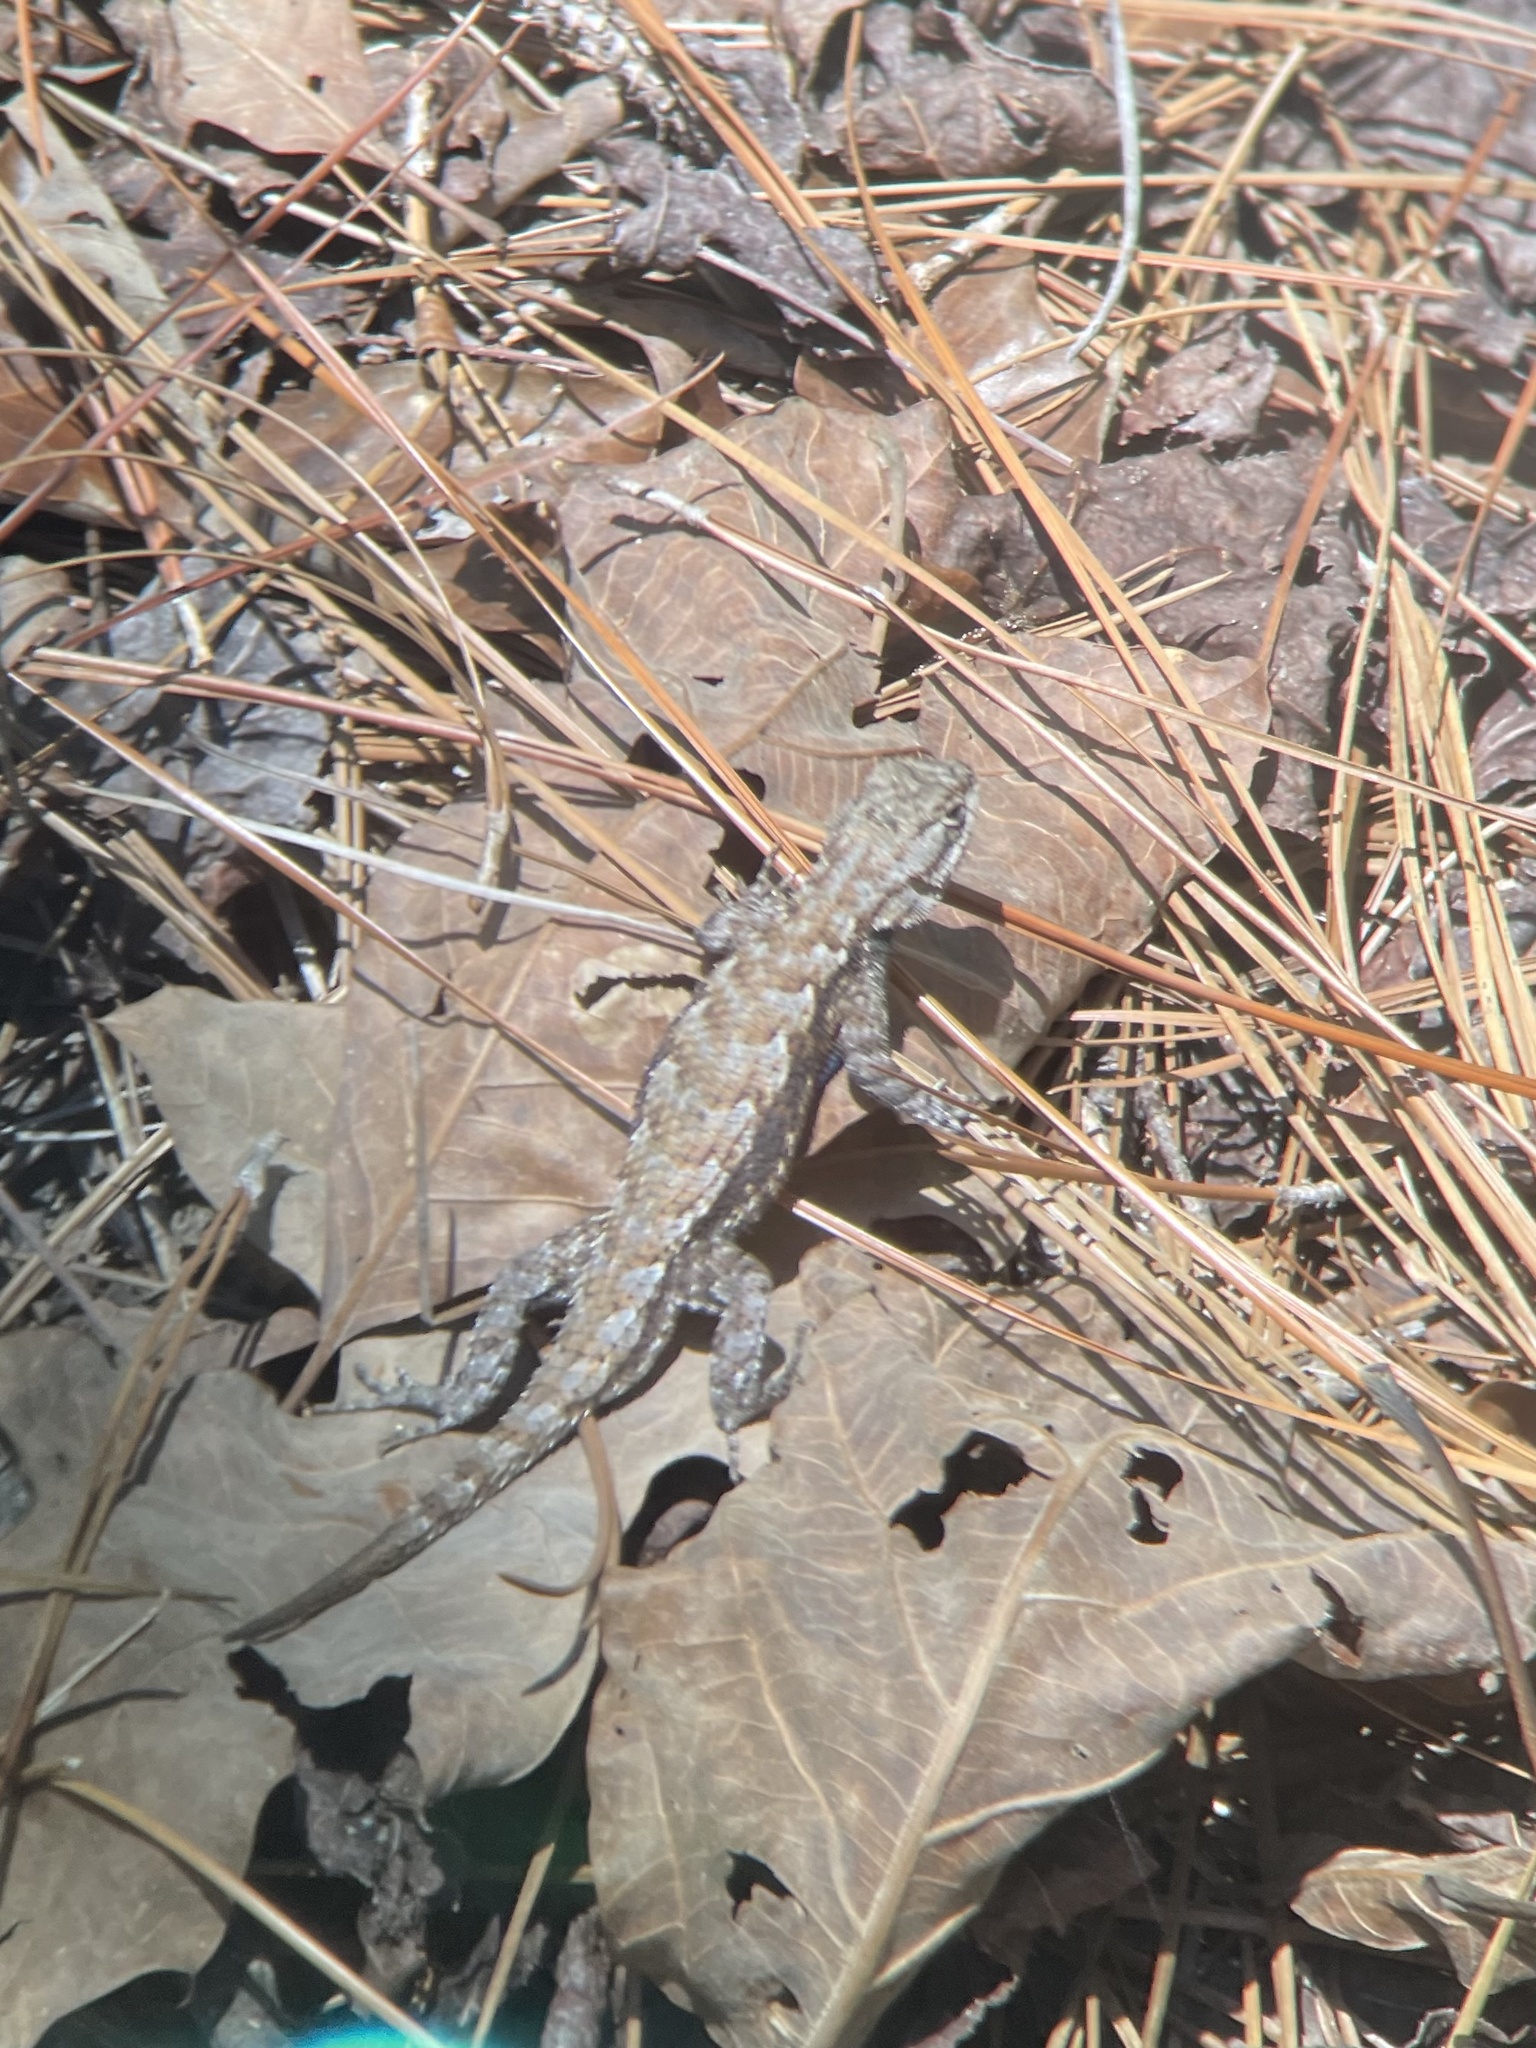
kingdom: Animalia
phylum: Chordata
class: Squamata
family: Phrynosomatidae
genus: Sceloporus
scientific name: Sceloporus undulatus
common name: Eastern fence lizard
